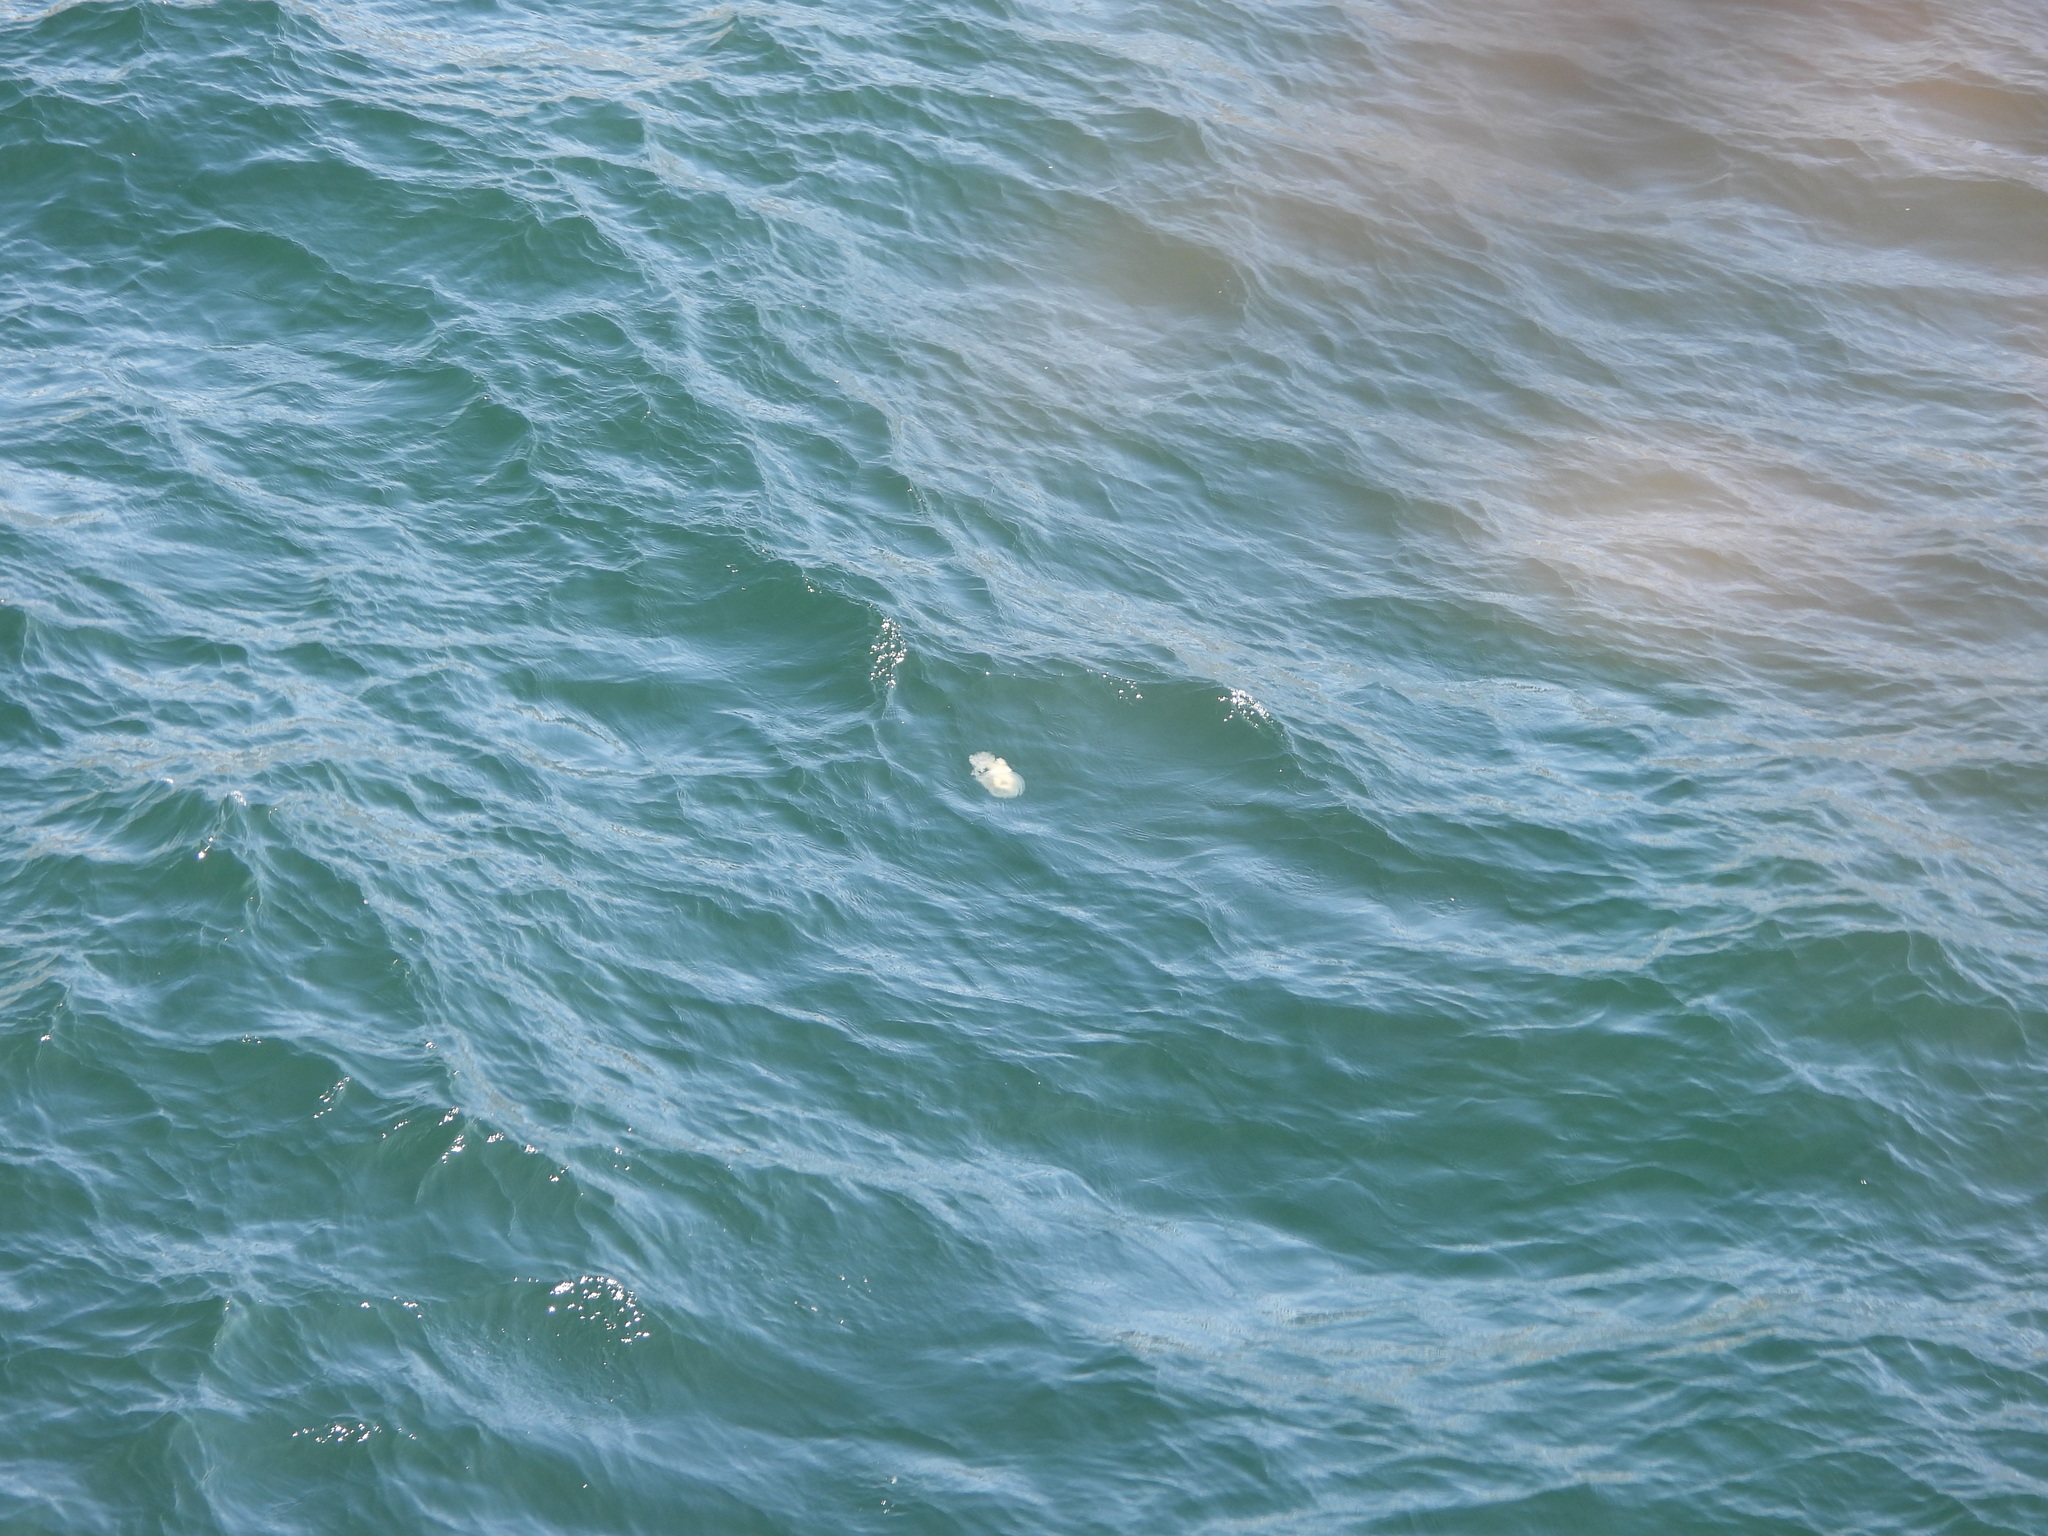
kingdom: Animalia
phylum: Cnidaria
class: Scyphozoa
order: Semaeostomeae
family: Phacellophoridae
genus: Phacellophora
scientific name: Phacellophora camtschatica
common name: Fried-egg jellyfish
